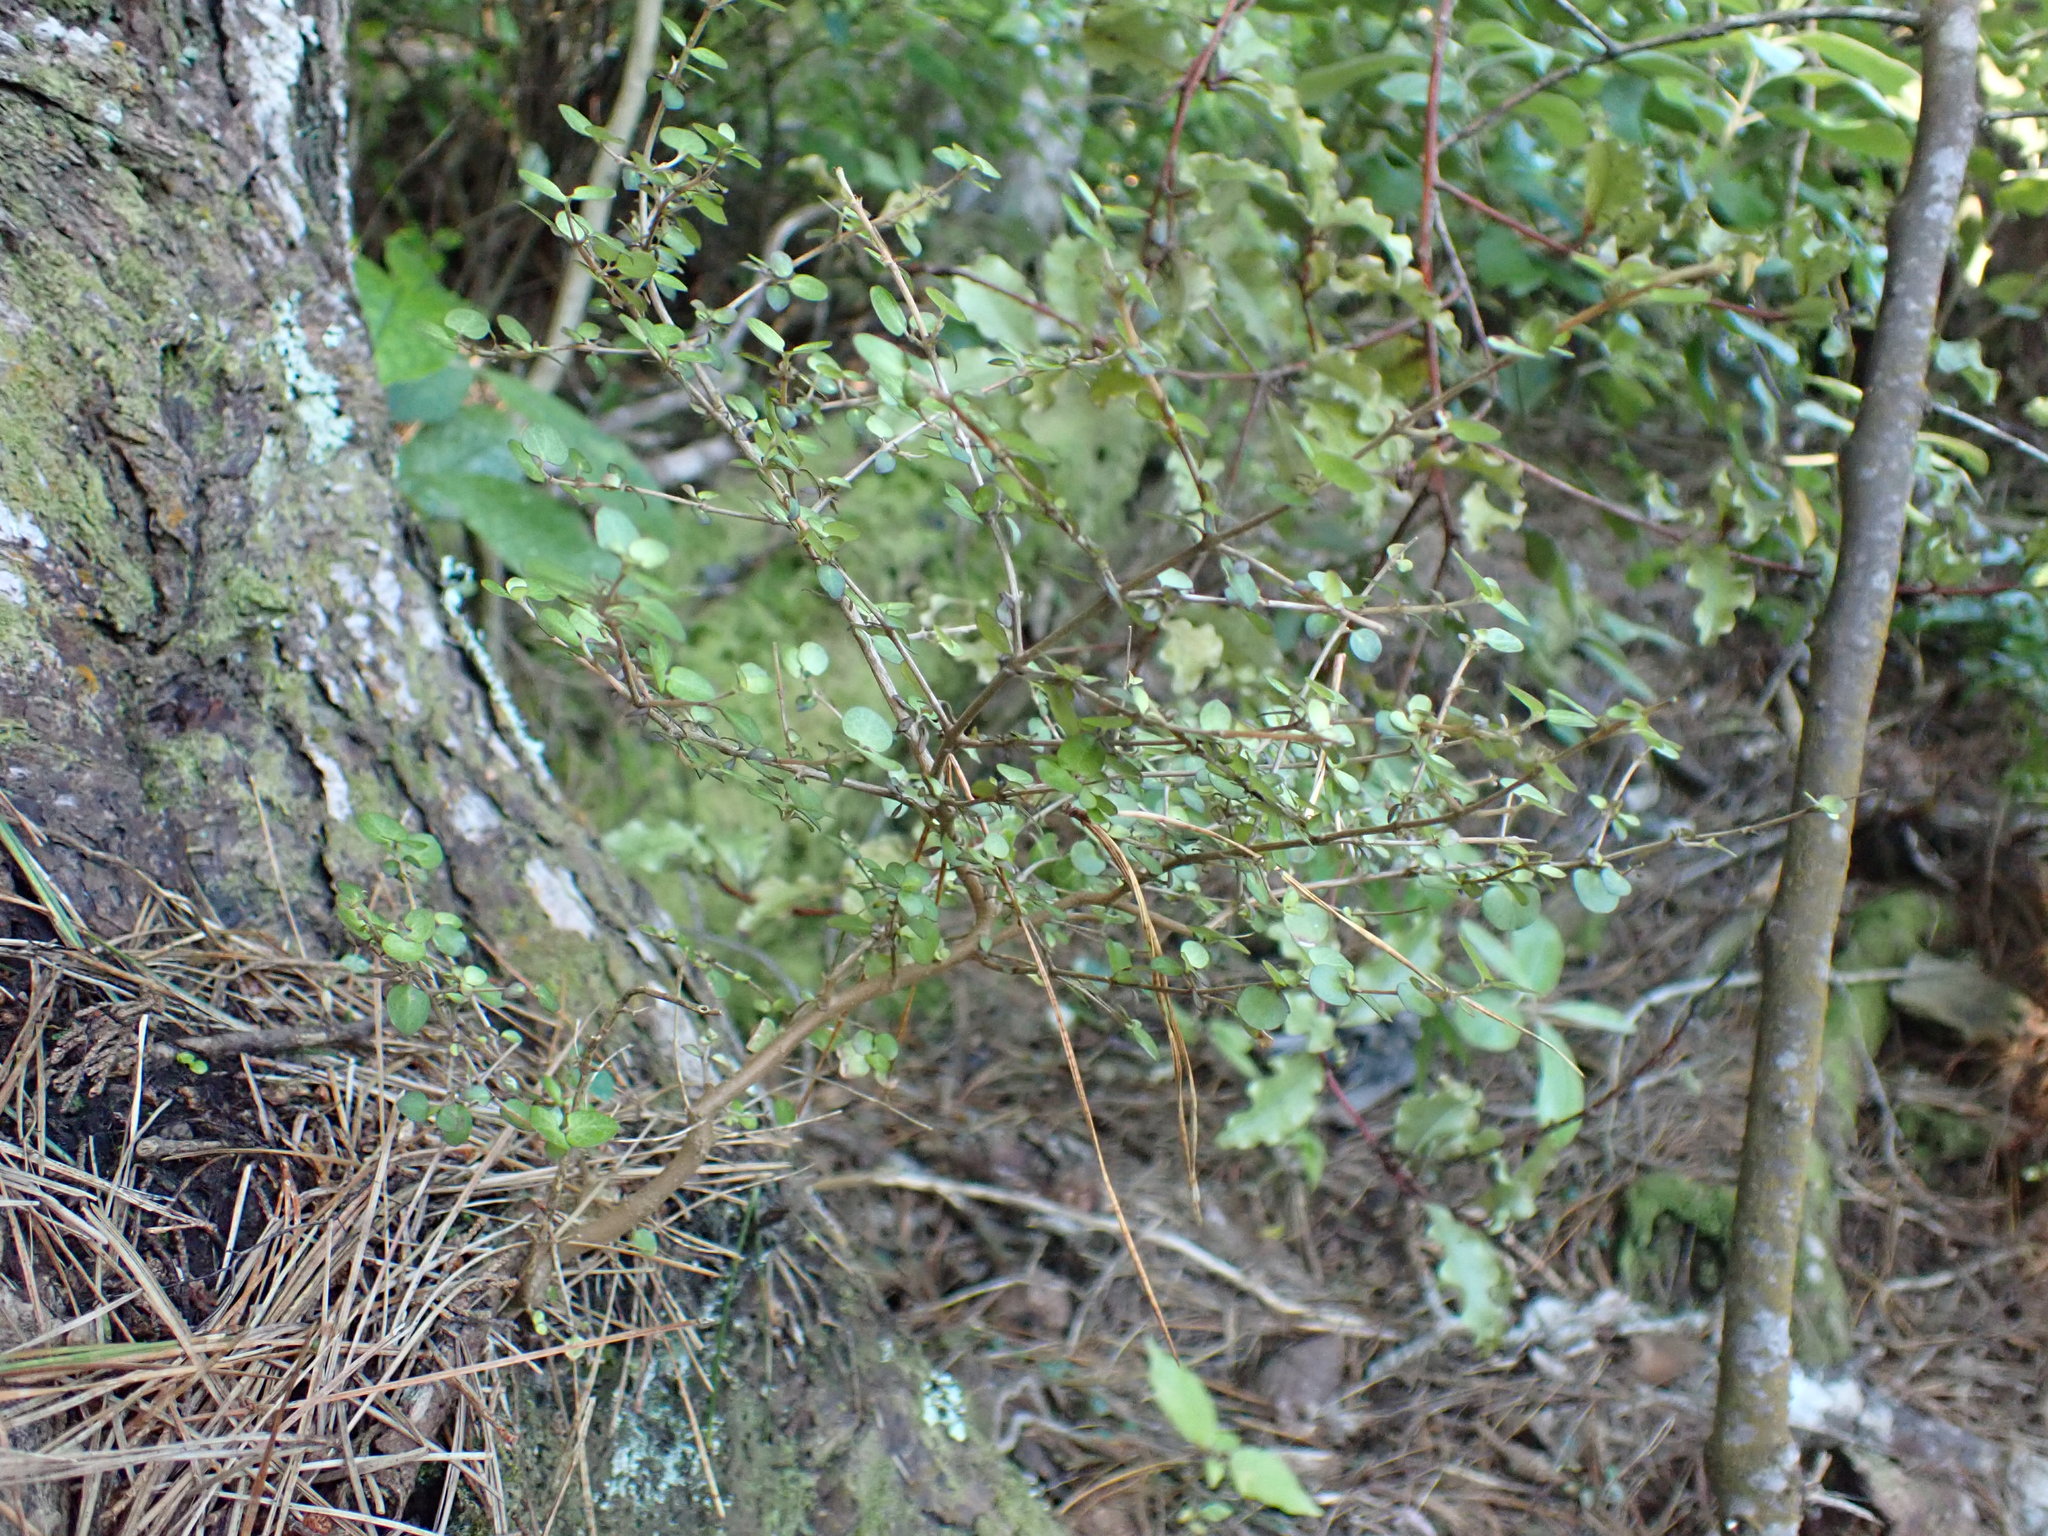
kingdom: Plantae
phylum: Tracheophyta
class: Magnoliopsida
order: Gentianales
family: Rubiaceae
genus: Coprosma
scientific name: Coprosma rhamnoides
